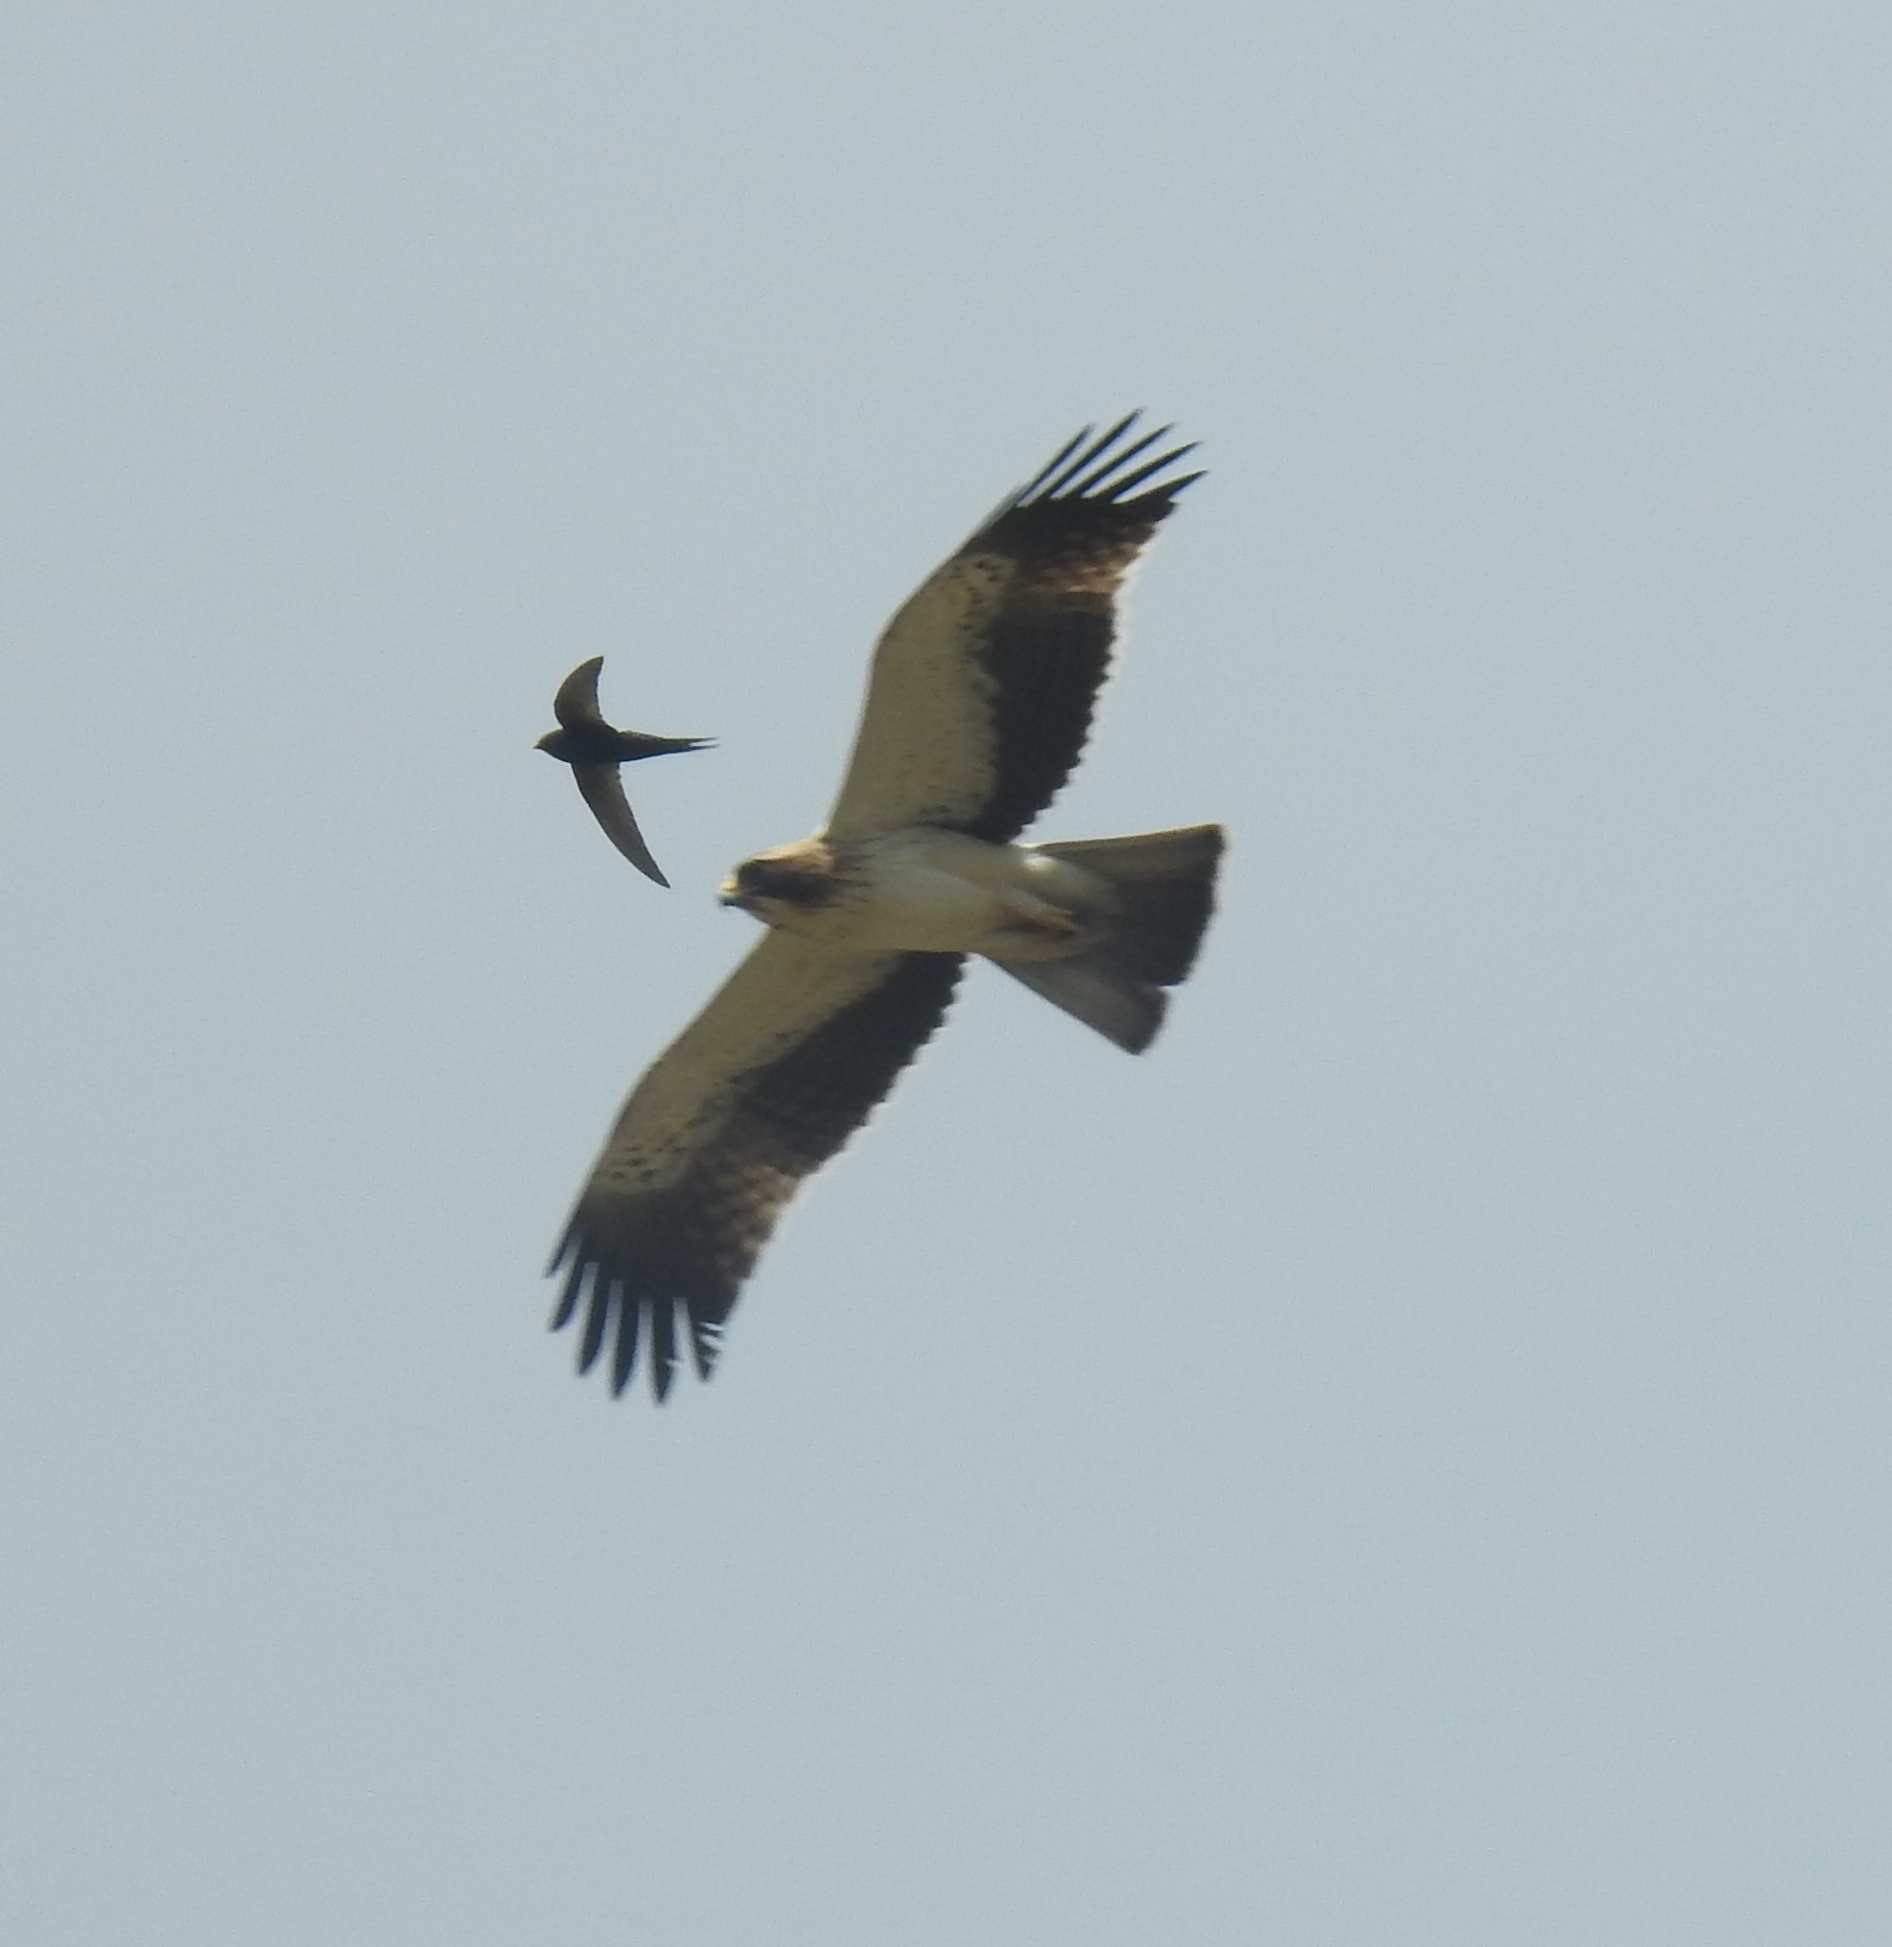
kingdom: Animalia
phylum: Chordata
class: Aves
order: Accipitriformes
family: Accipitridae
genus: Hieraaetus
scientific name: Hieraaetus pennatus
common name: Booted eagle
